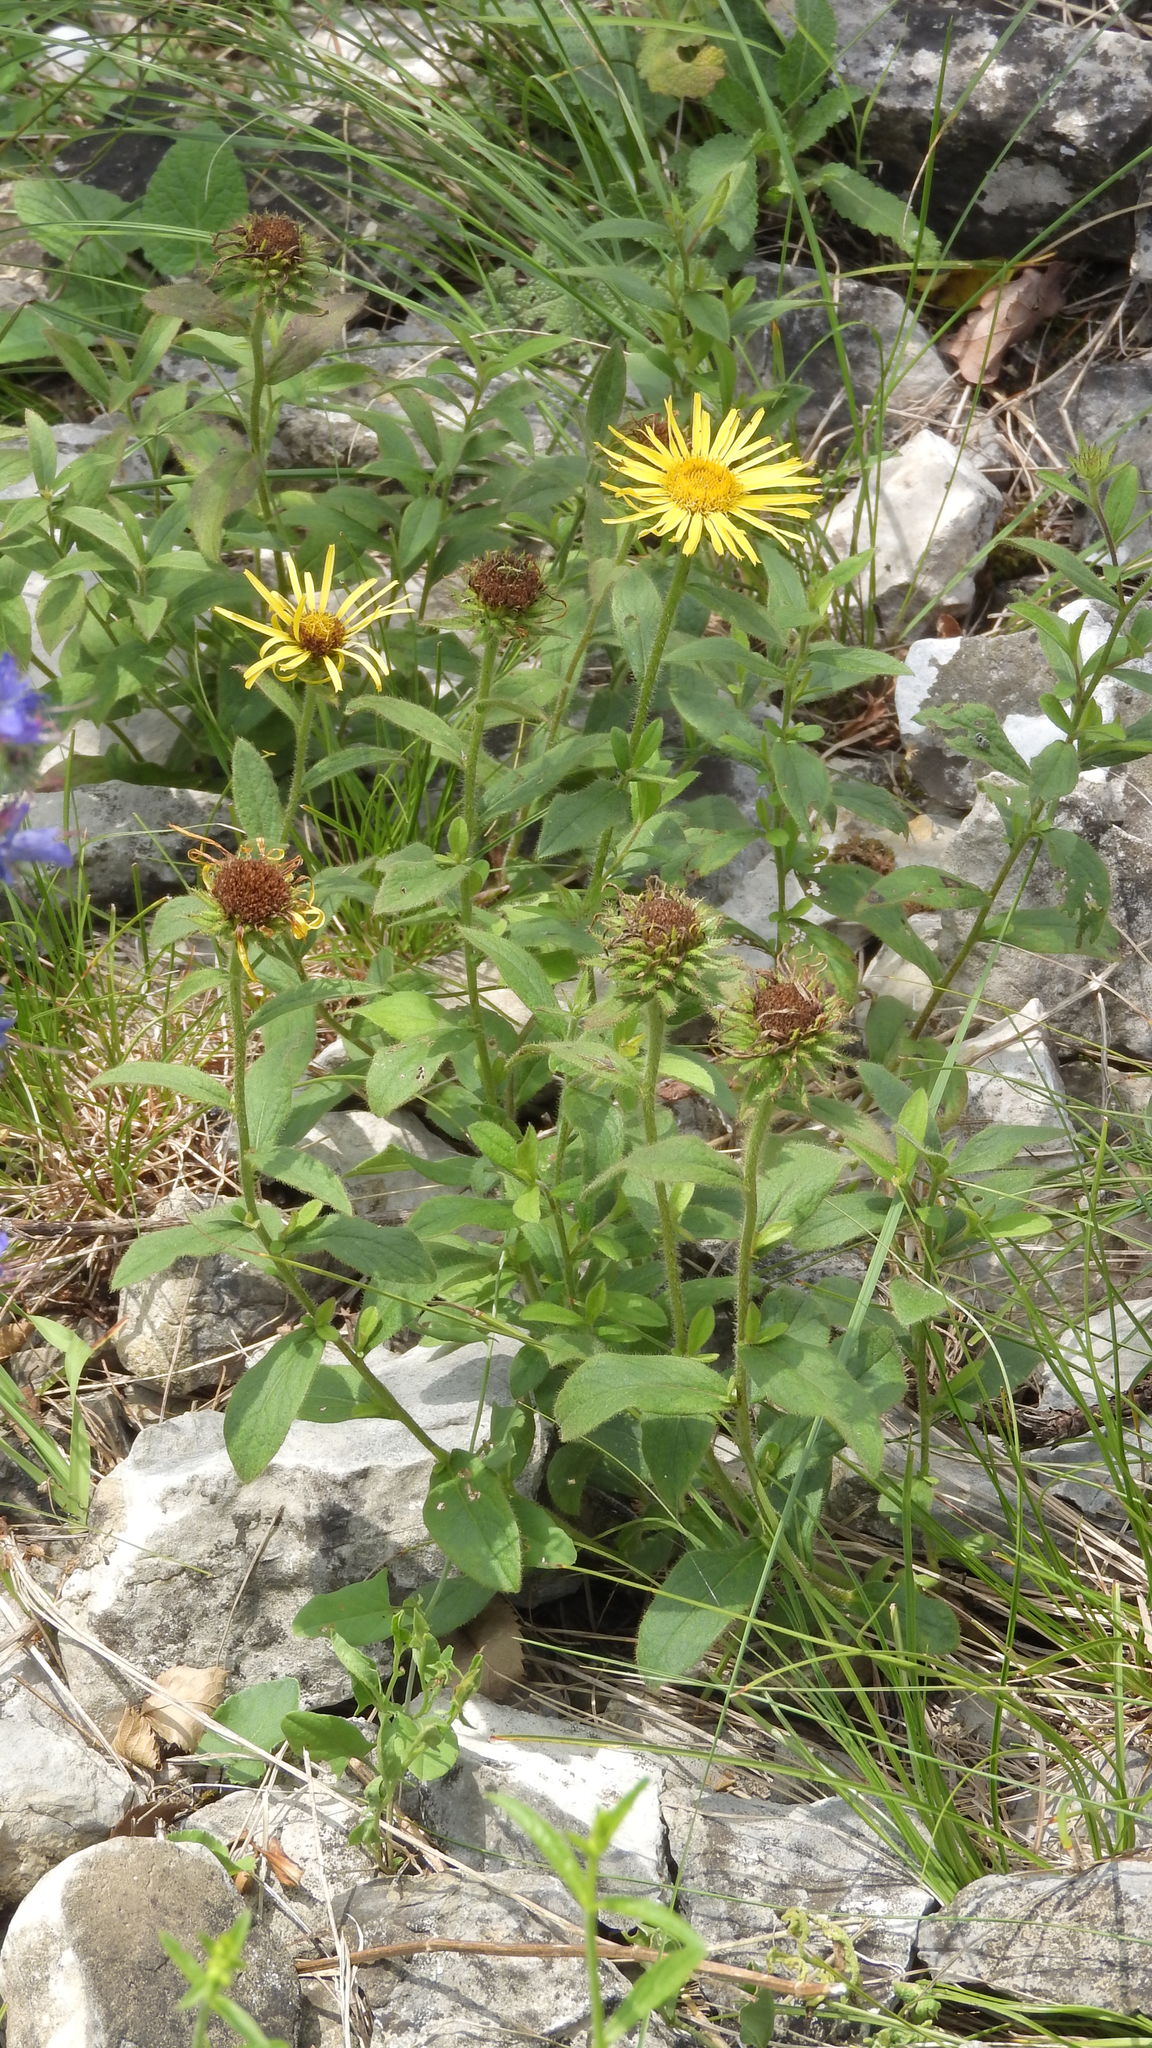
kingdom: Plantae
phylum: Tracheophyta
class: Magnoliopsida
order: Asterales
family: Asteraceae
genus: Pentanema
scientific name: Pentanema hirtum
